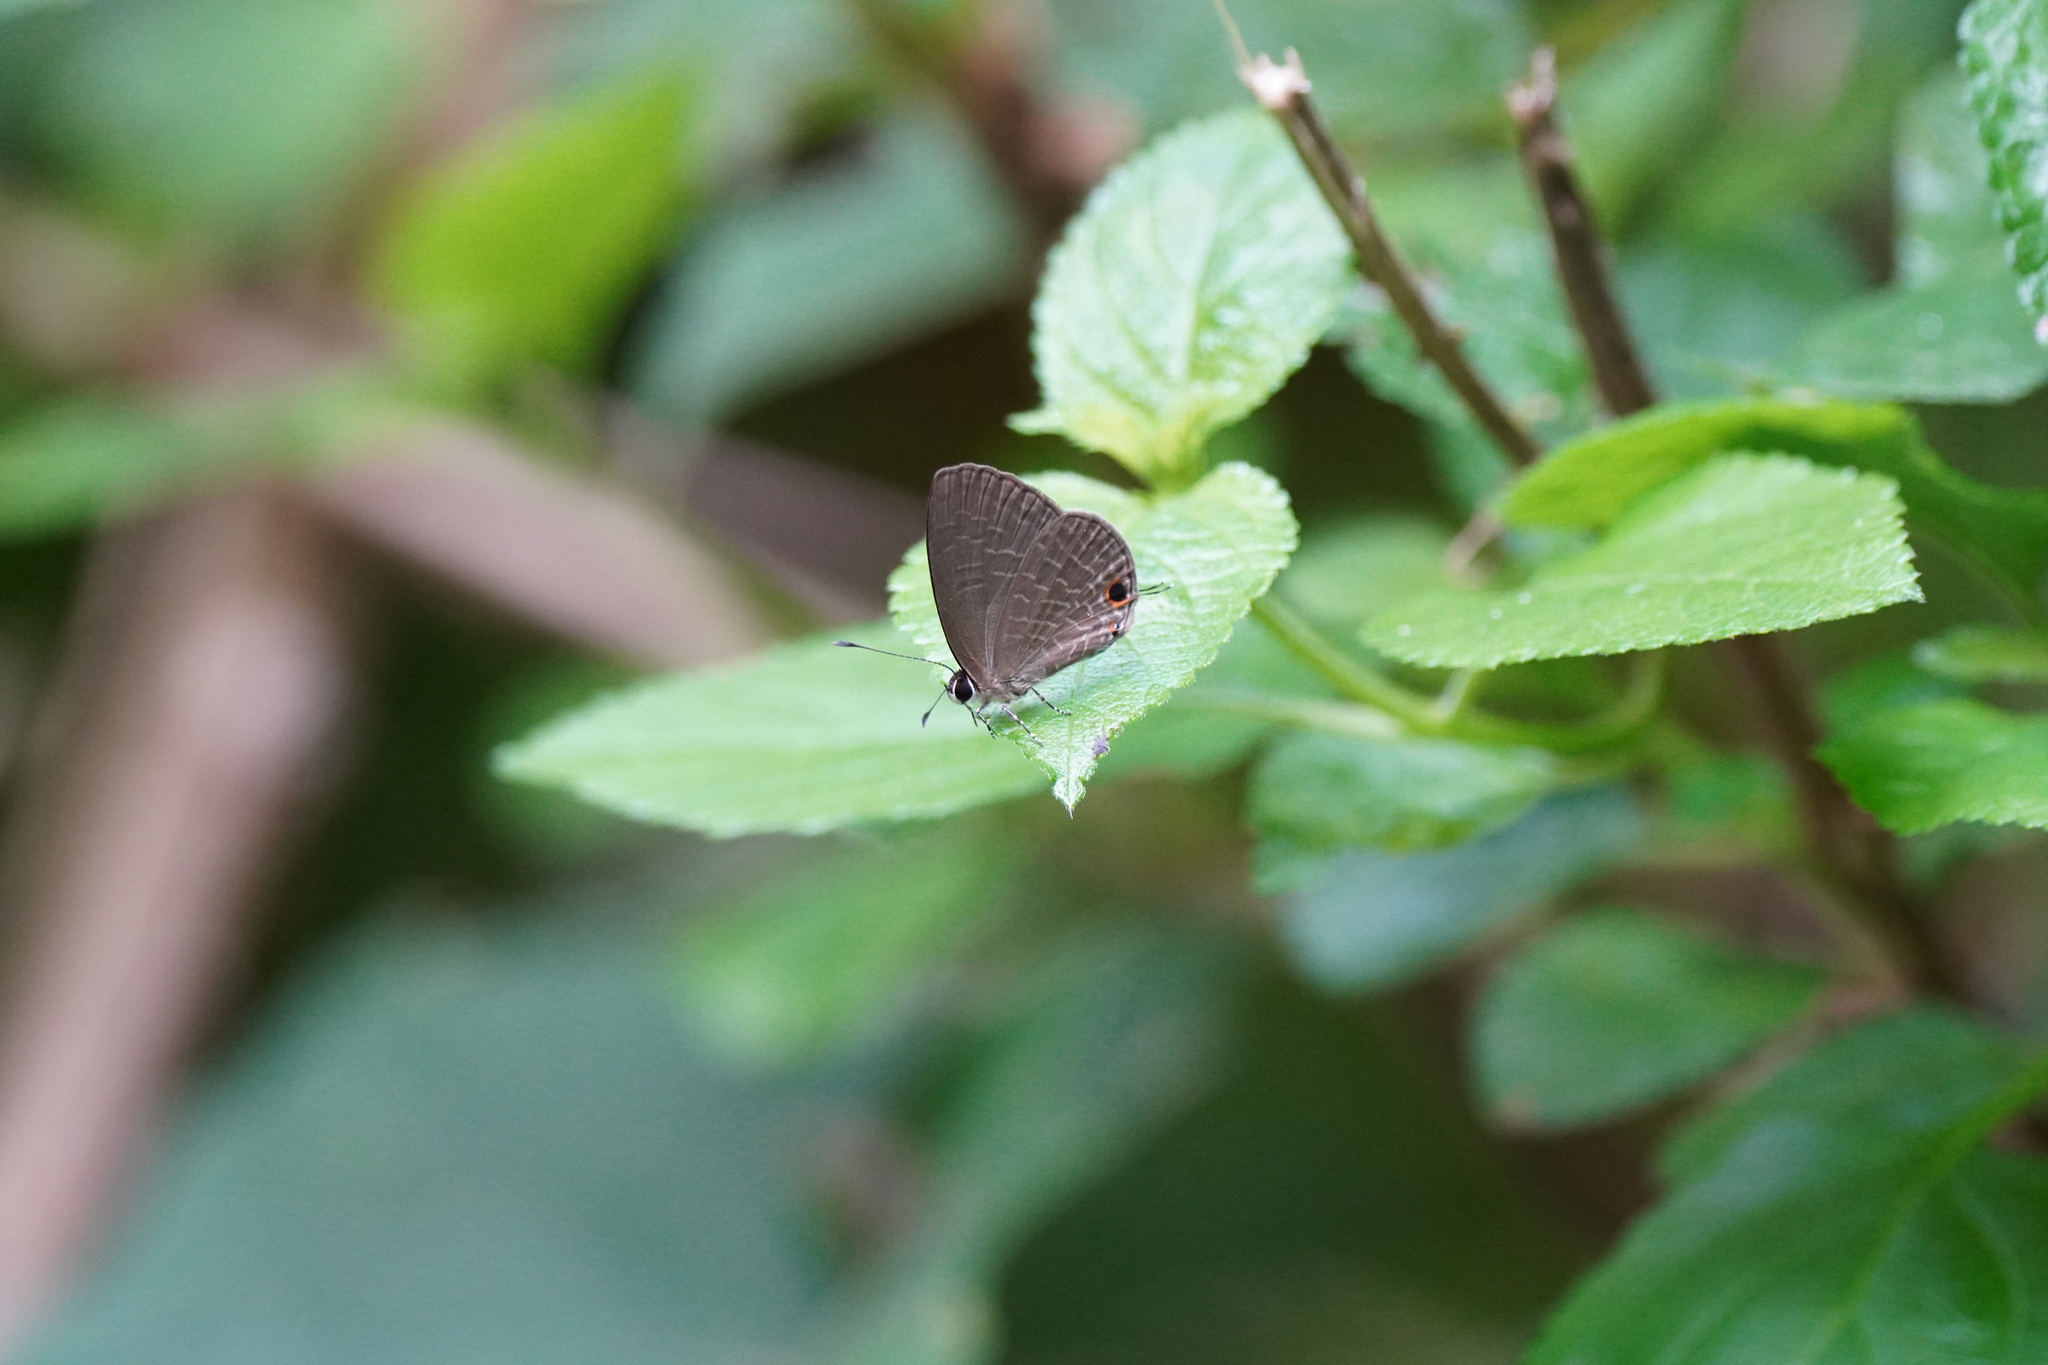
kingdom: Animalia
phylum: Arthropoda
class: Insecta
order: Lepidoptera
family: Lycaenidae
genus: Jamides
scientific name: Jamides bochus
